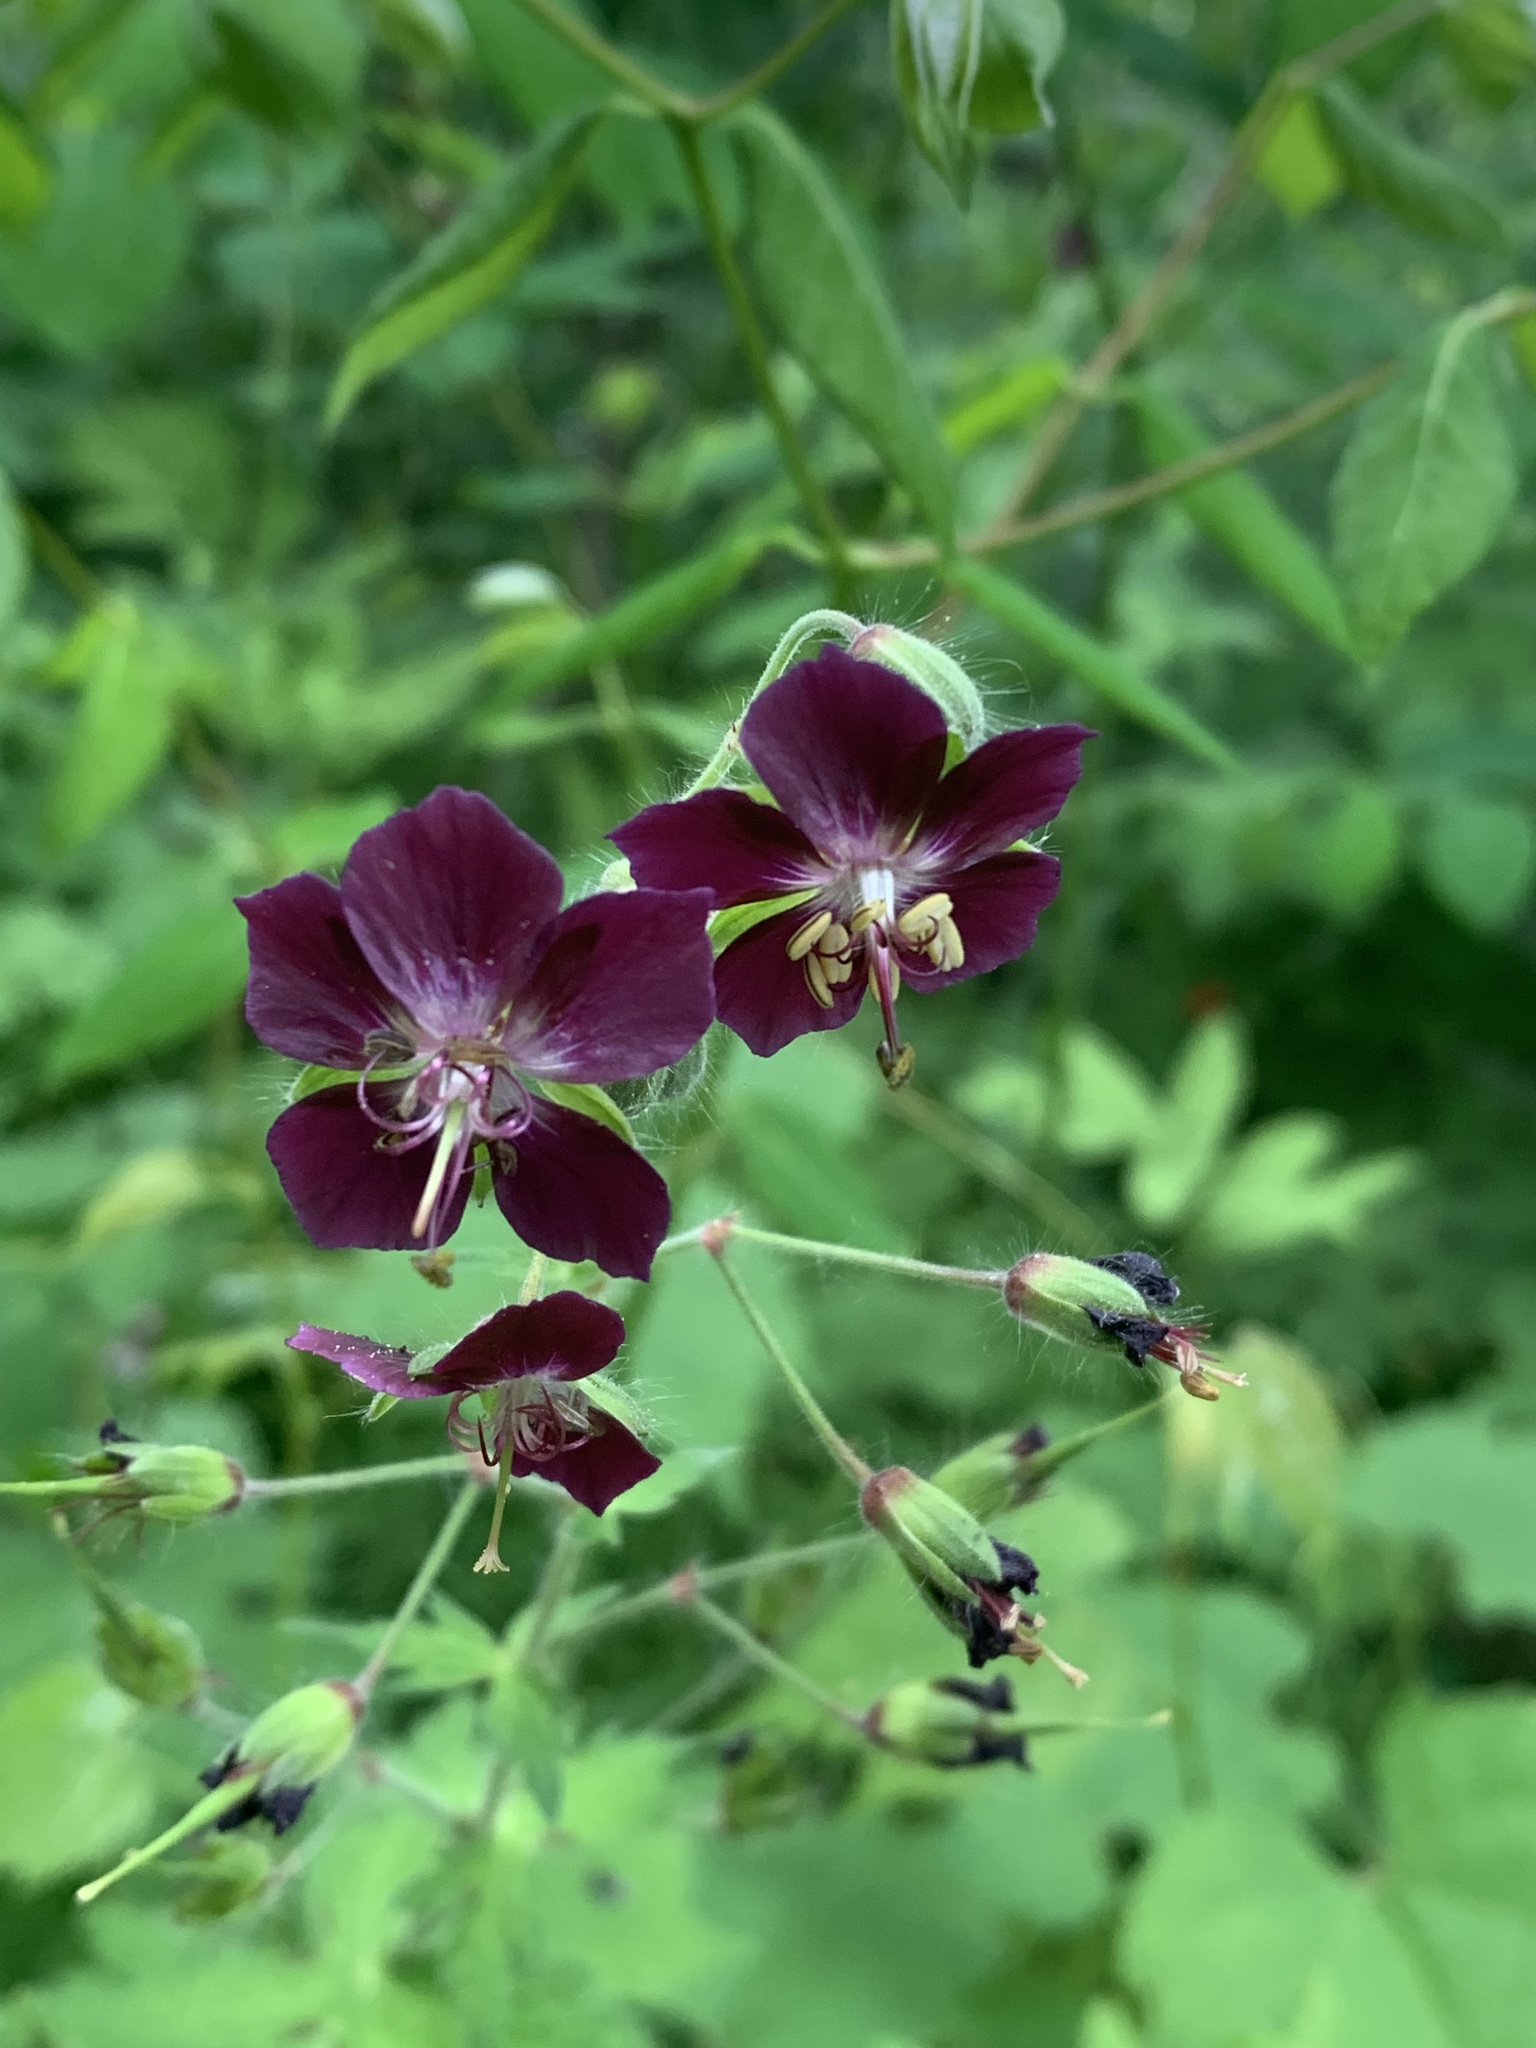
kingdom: Plantae
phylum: Tracheophyta
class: Magnoliopsida
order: Geraniales
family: Geraniaceae
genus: Geranium
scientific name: Geranium phaeum
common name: Dusky crane's-bill
